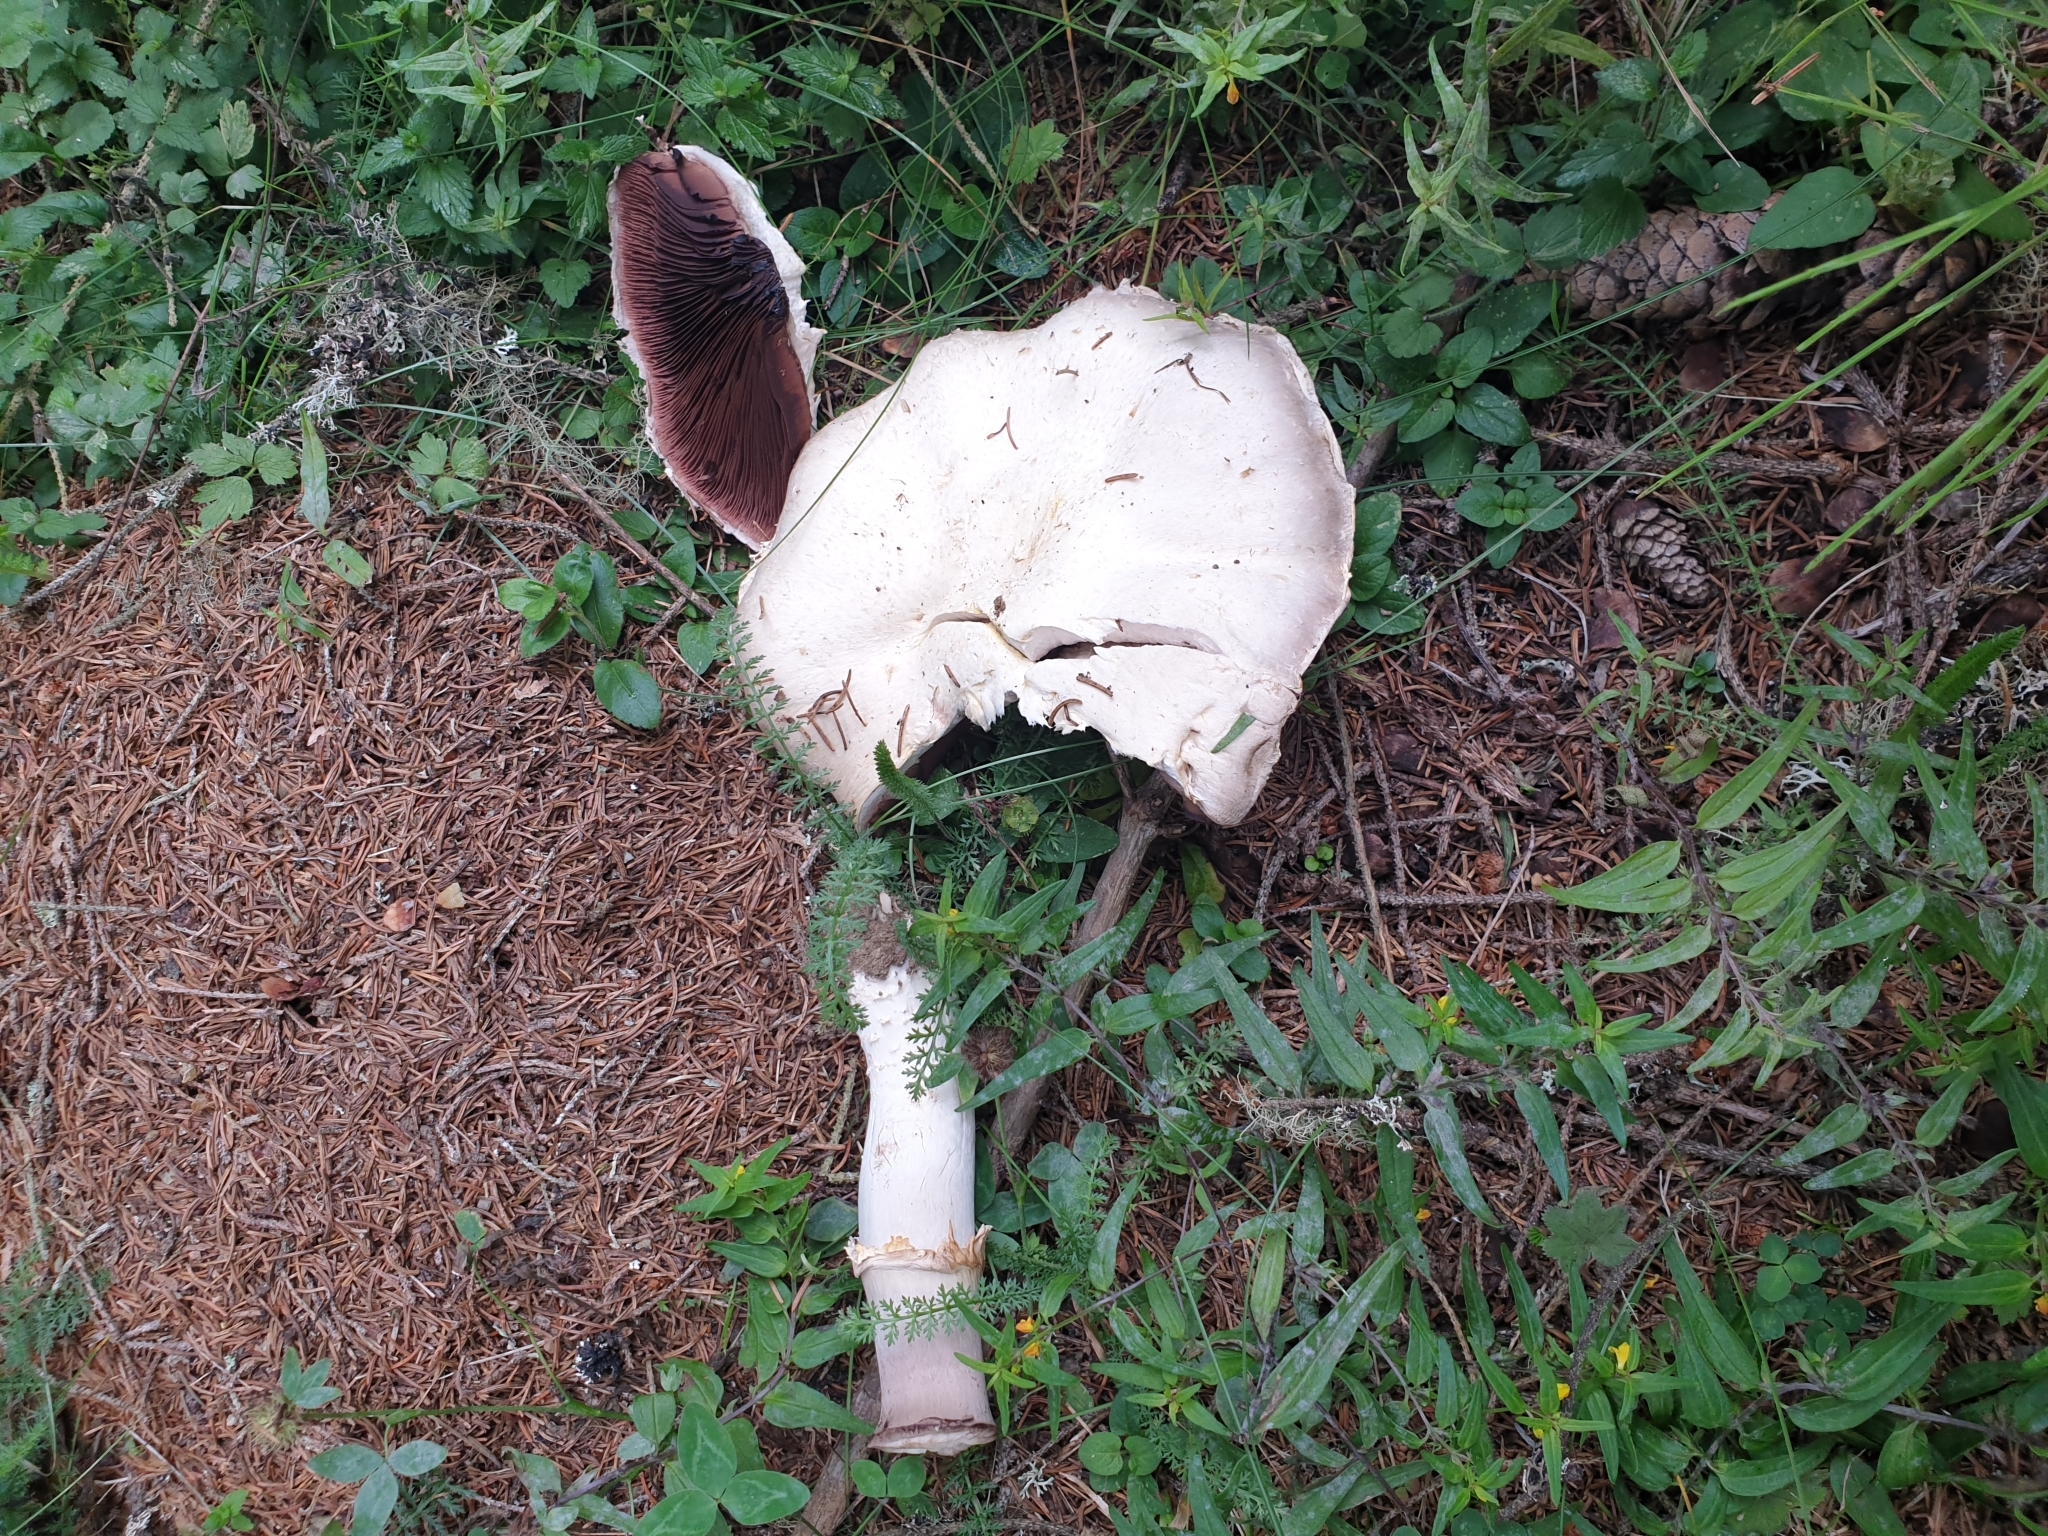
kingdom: Fungi
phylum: Basidiomycota
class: Agaricomycetes
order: Agaricales
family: Agaricaceae
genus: Agaricus
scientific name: Agaricus arvensis
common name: Horse mushroom
